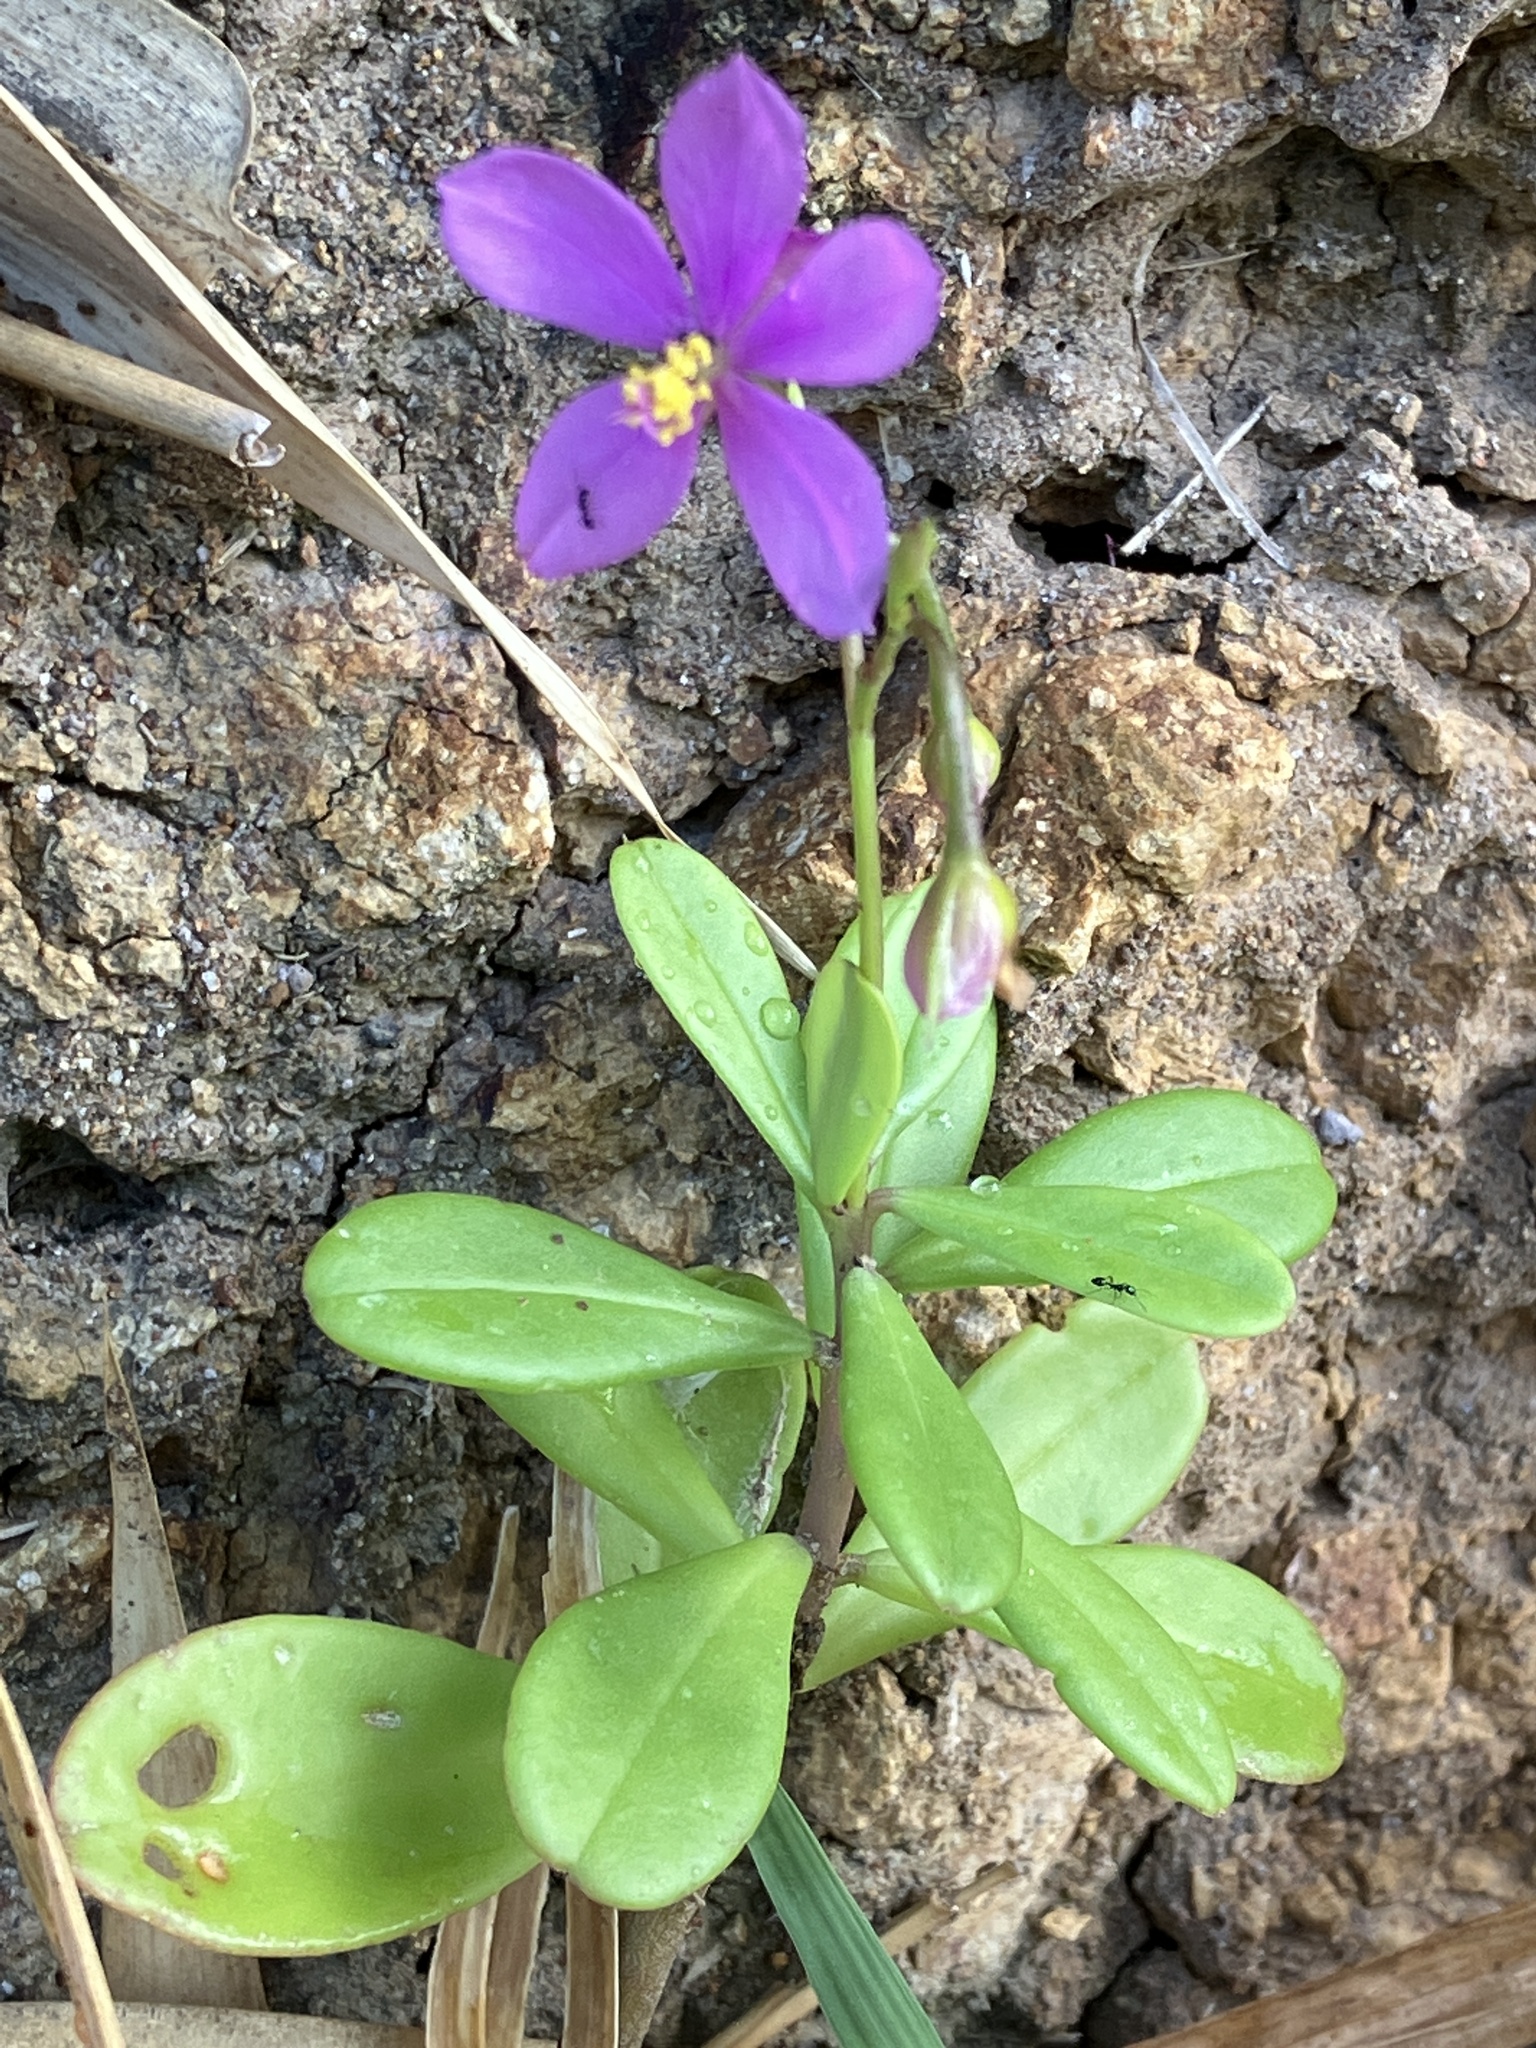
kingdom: Plantae
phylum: Tracheophyta
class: Magnoliopsida
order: Caryophyllales
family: Talinaceae
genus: Talinum
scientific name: Talinum fruticosum
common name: Verdolaga-francesa
